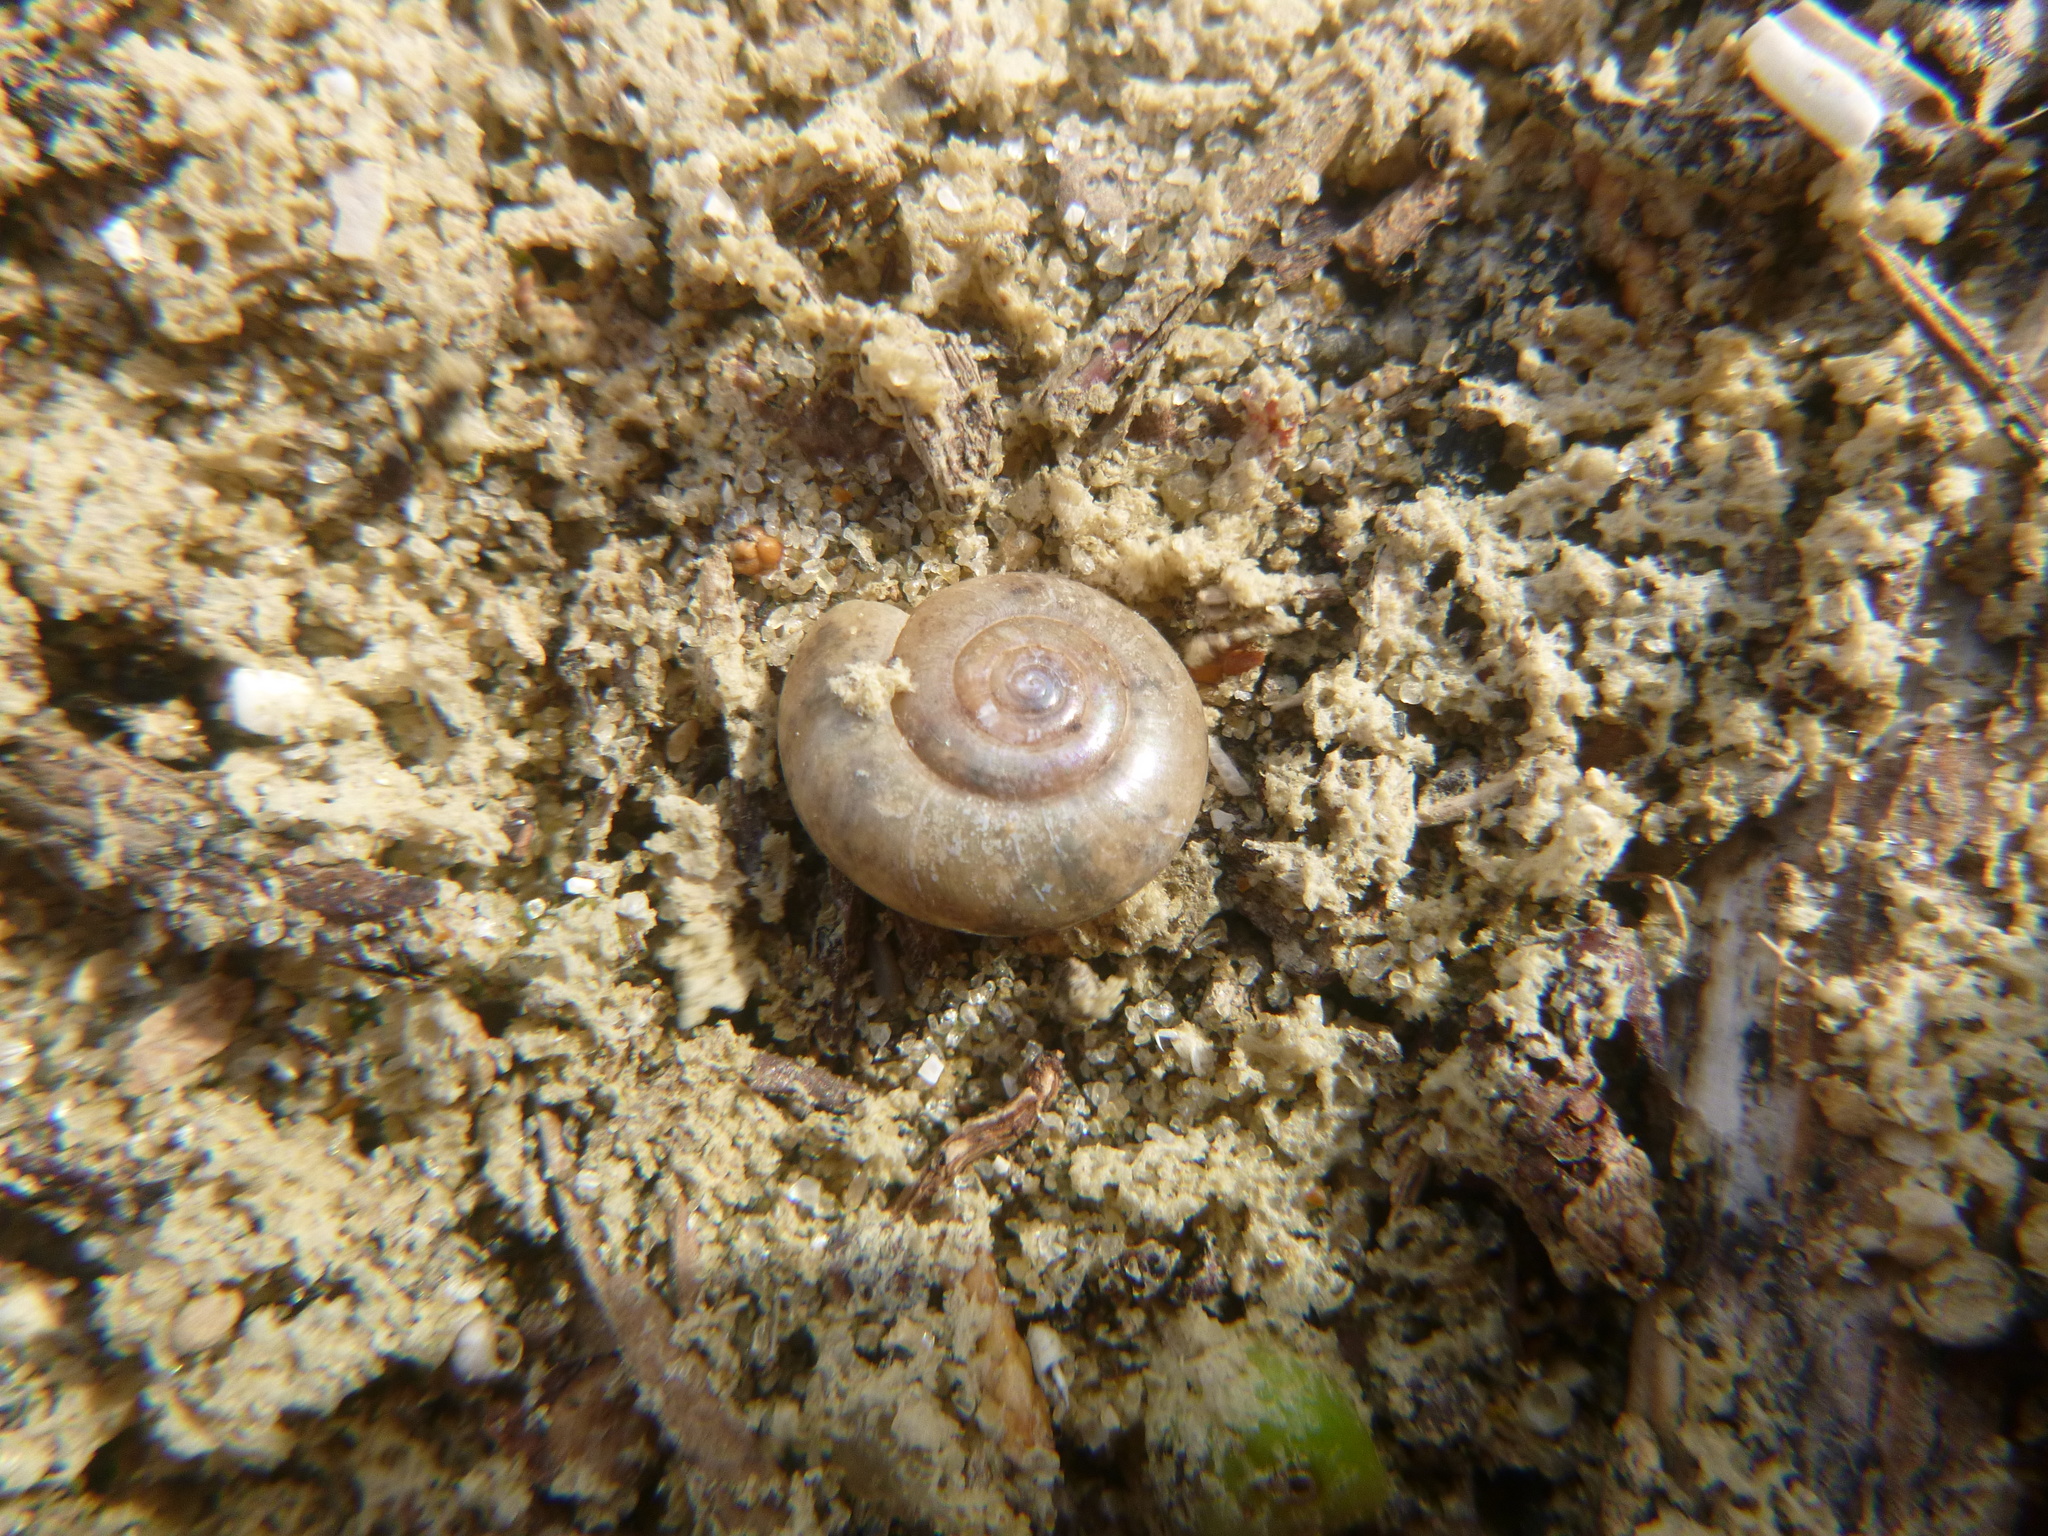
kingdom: Animalia
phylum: Mollusca
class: Gastropoda
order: Stylommatophora
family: Oxychilidae
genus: Oxychilus
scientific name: Oxychilus
